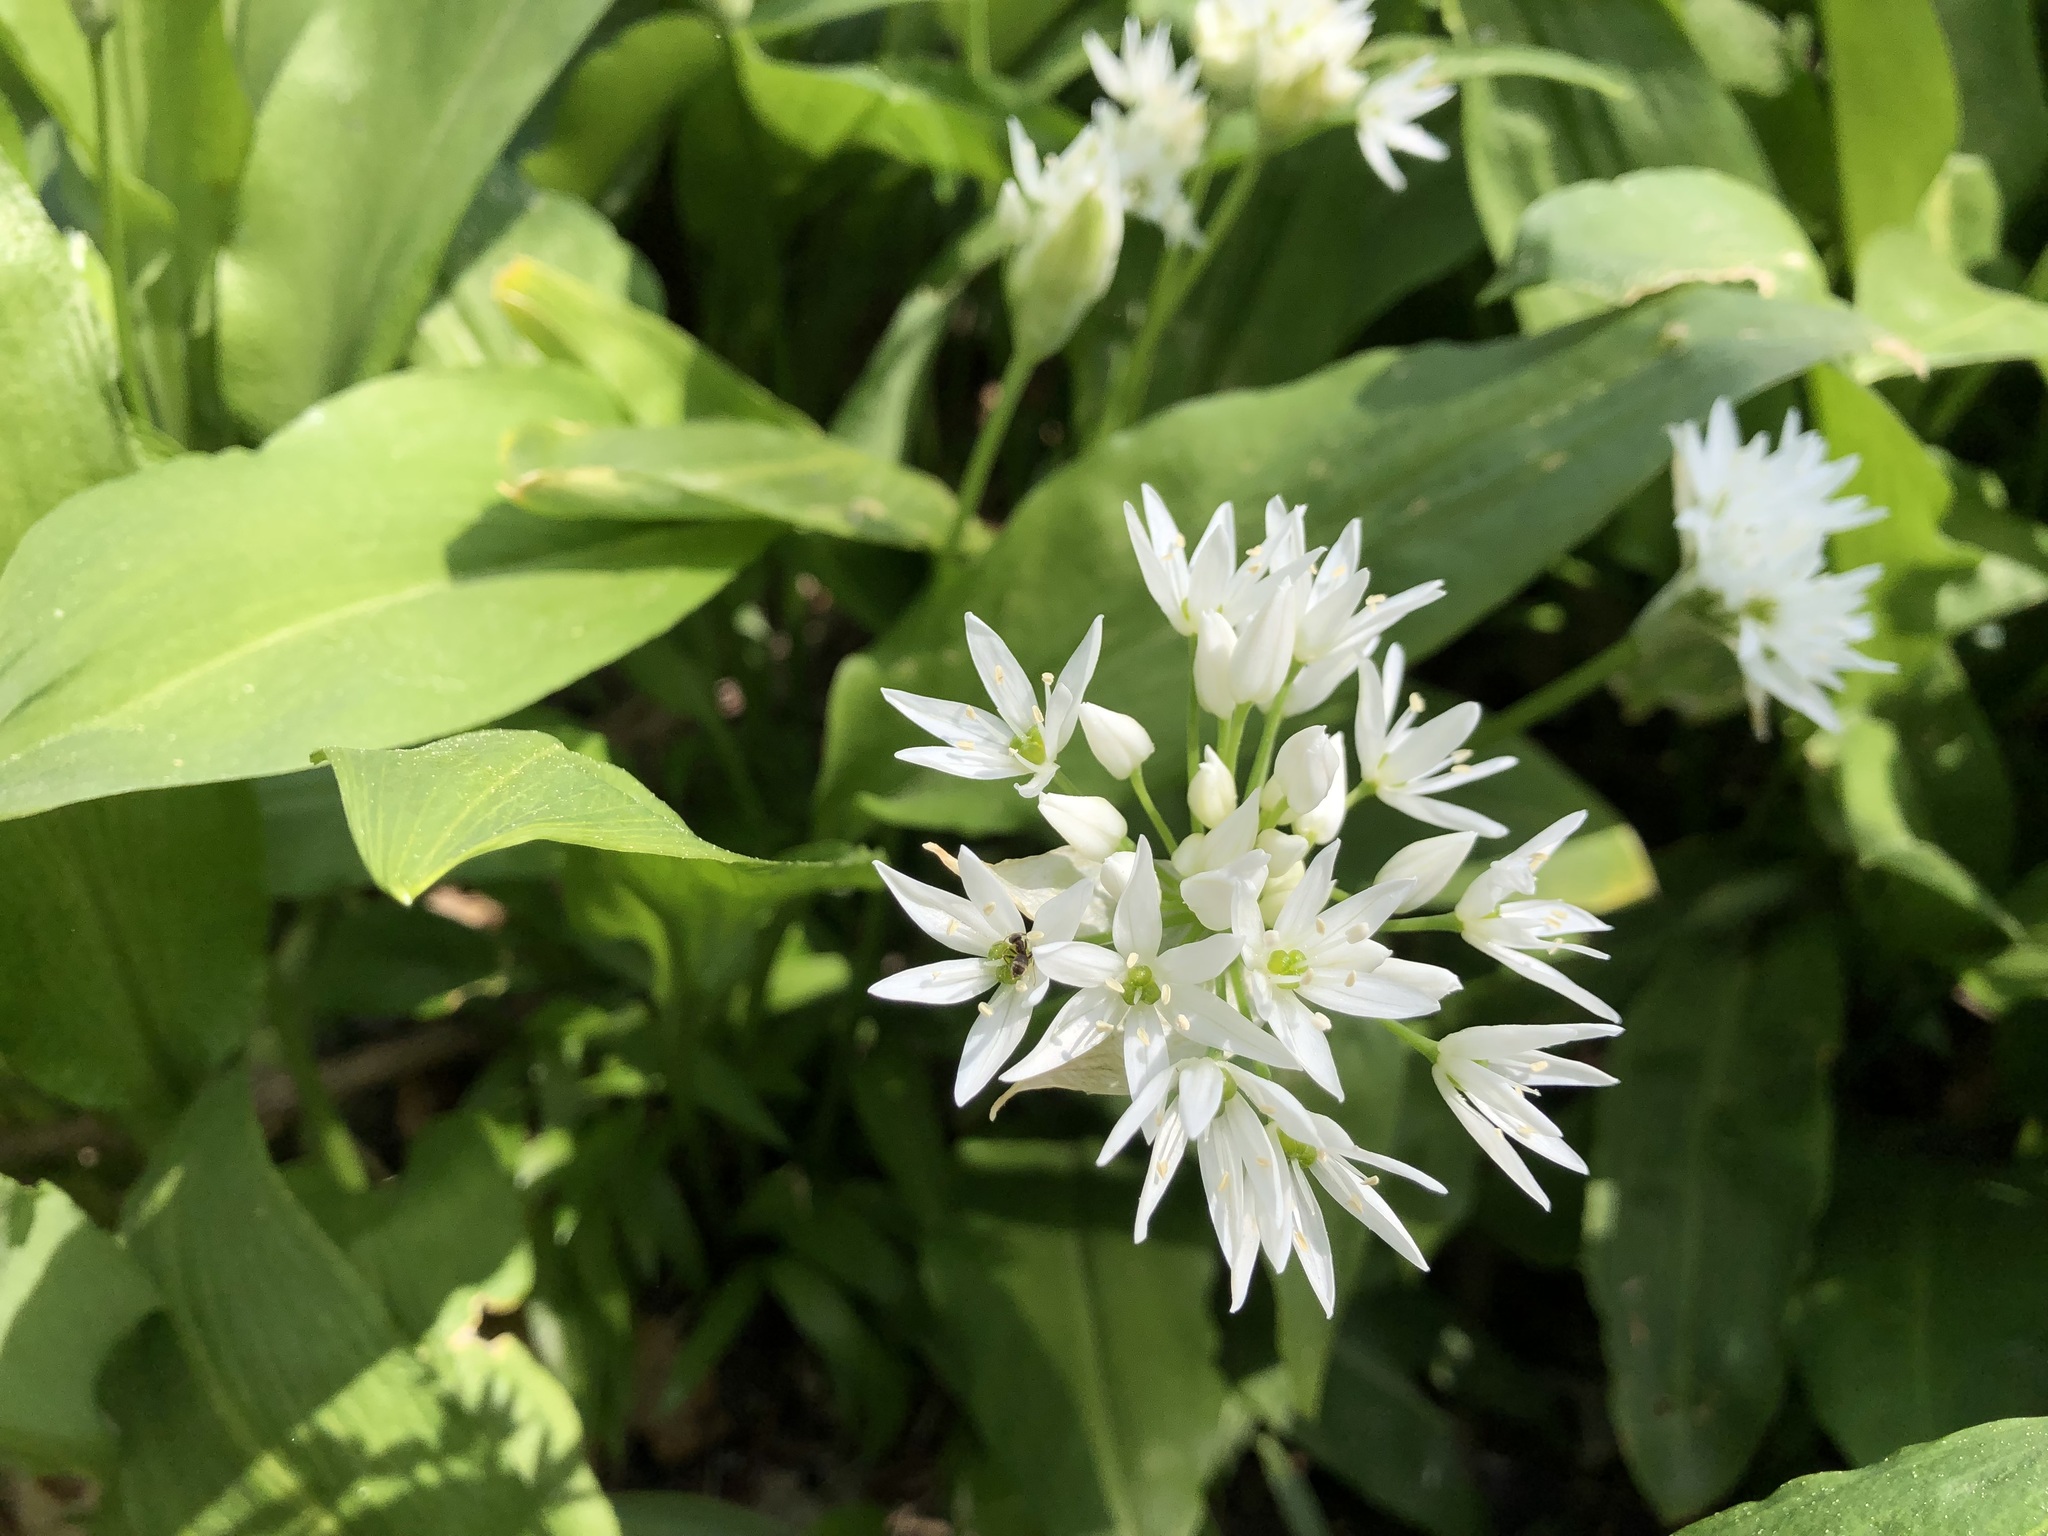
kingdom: Plantae
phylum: Tracheophyta
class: Liliopsida
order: Asparagales
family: Amaryllidaceae
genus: Allium
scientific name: Allium ursinum
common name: Ramsons
